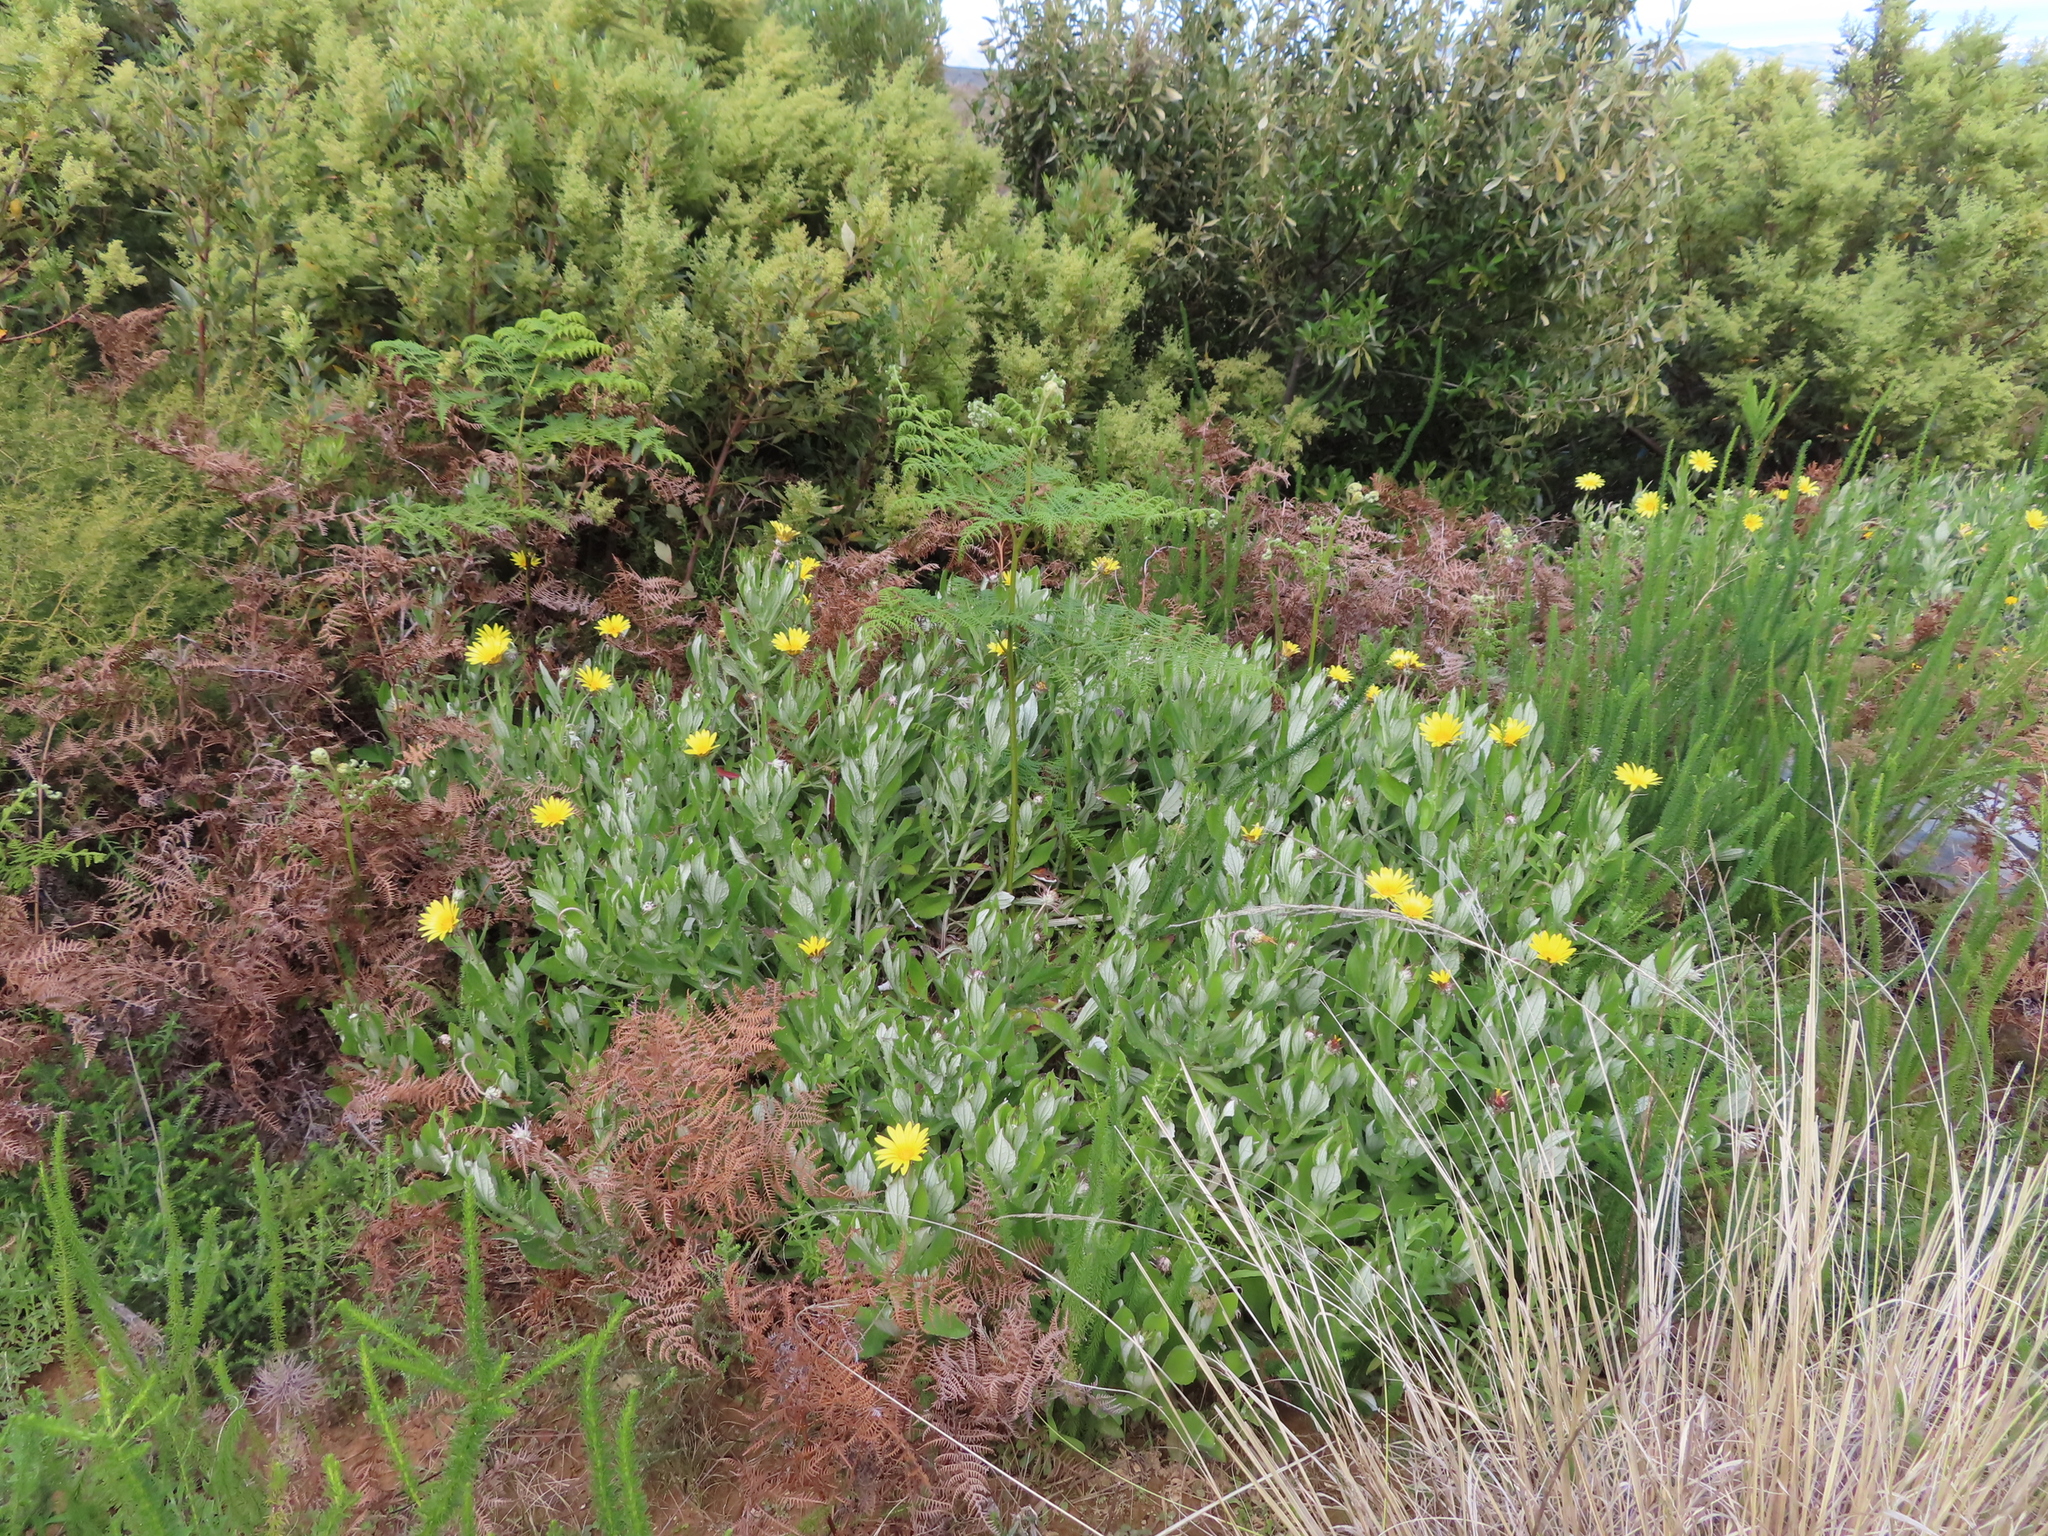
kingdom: Plantae
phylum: Tracheophyta
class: Magnoliopsida
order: Asterales
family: Asteraceae
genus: Osteospermum
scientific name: Osteospermum ilicifolium
